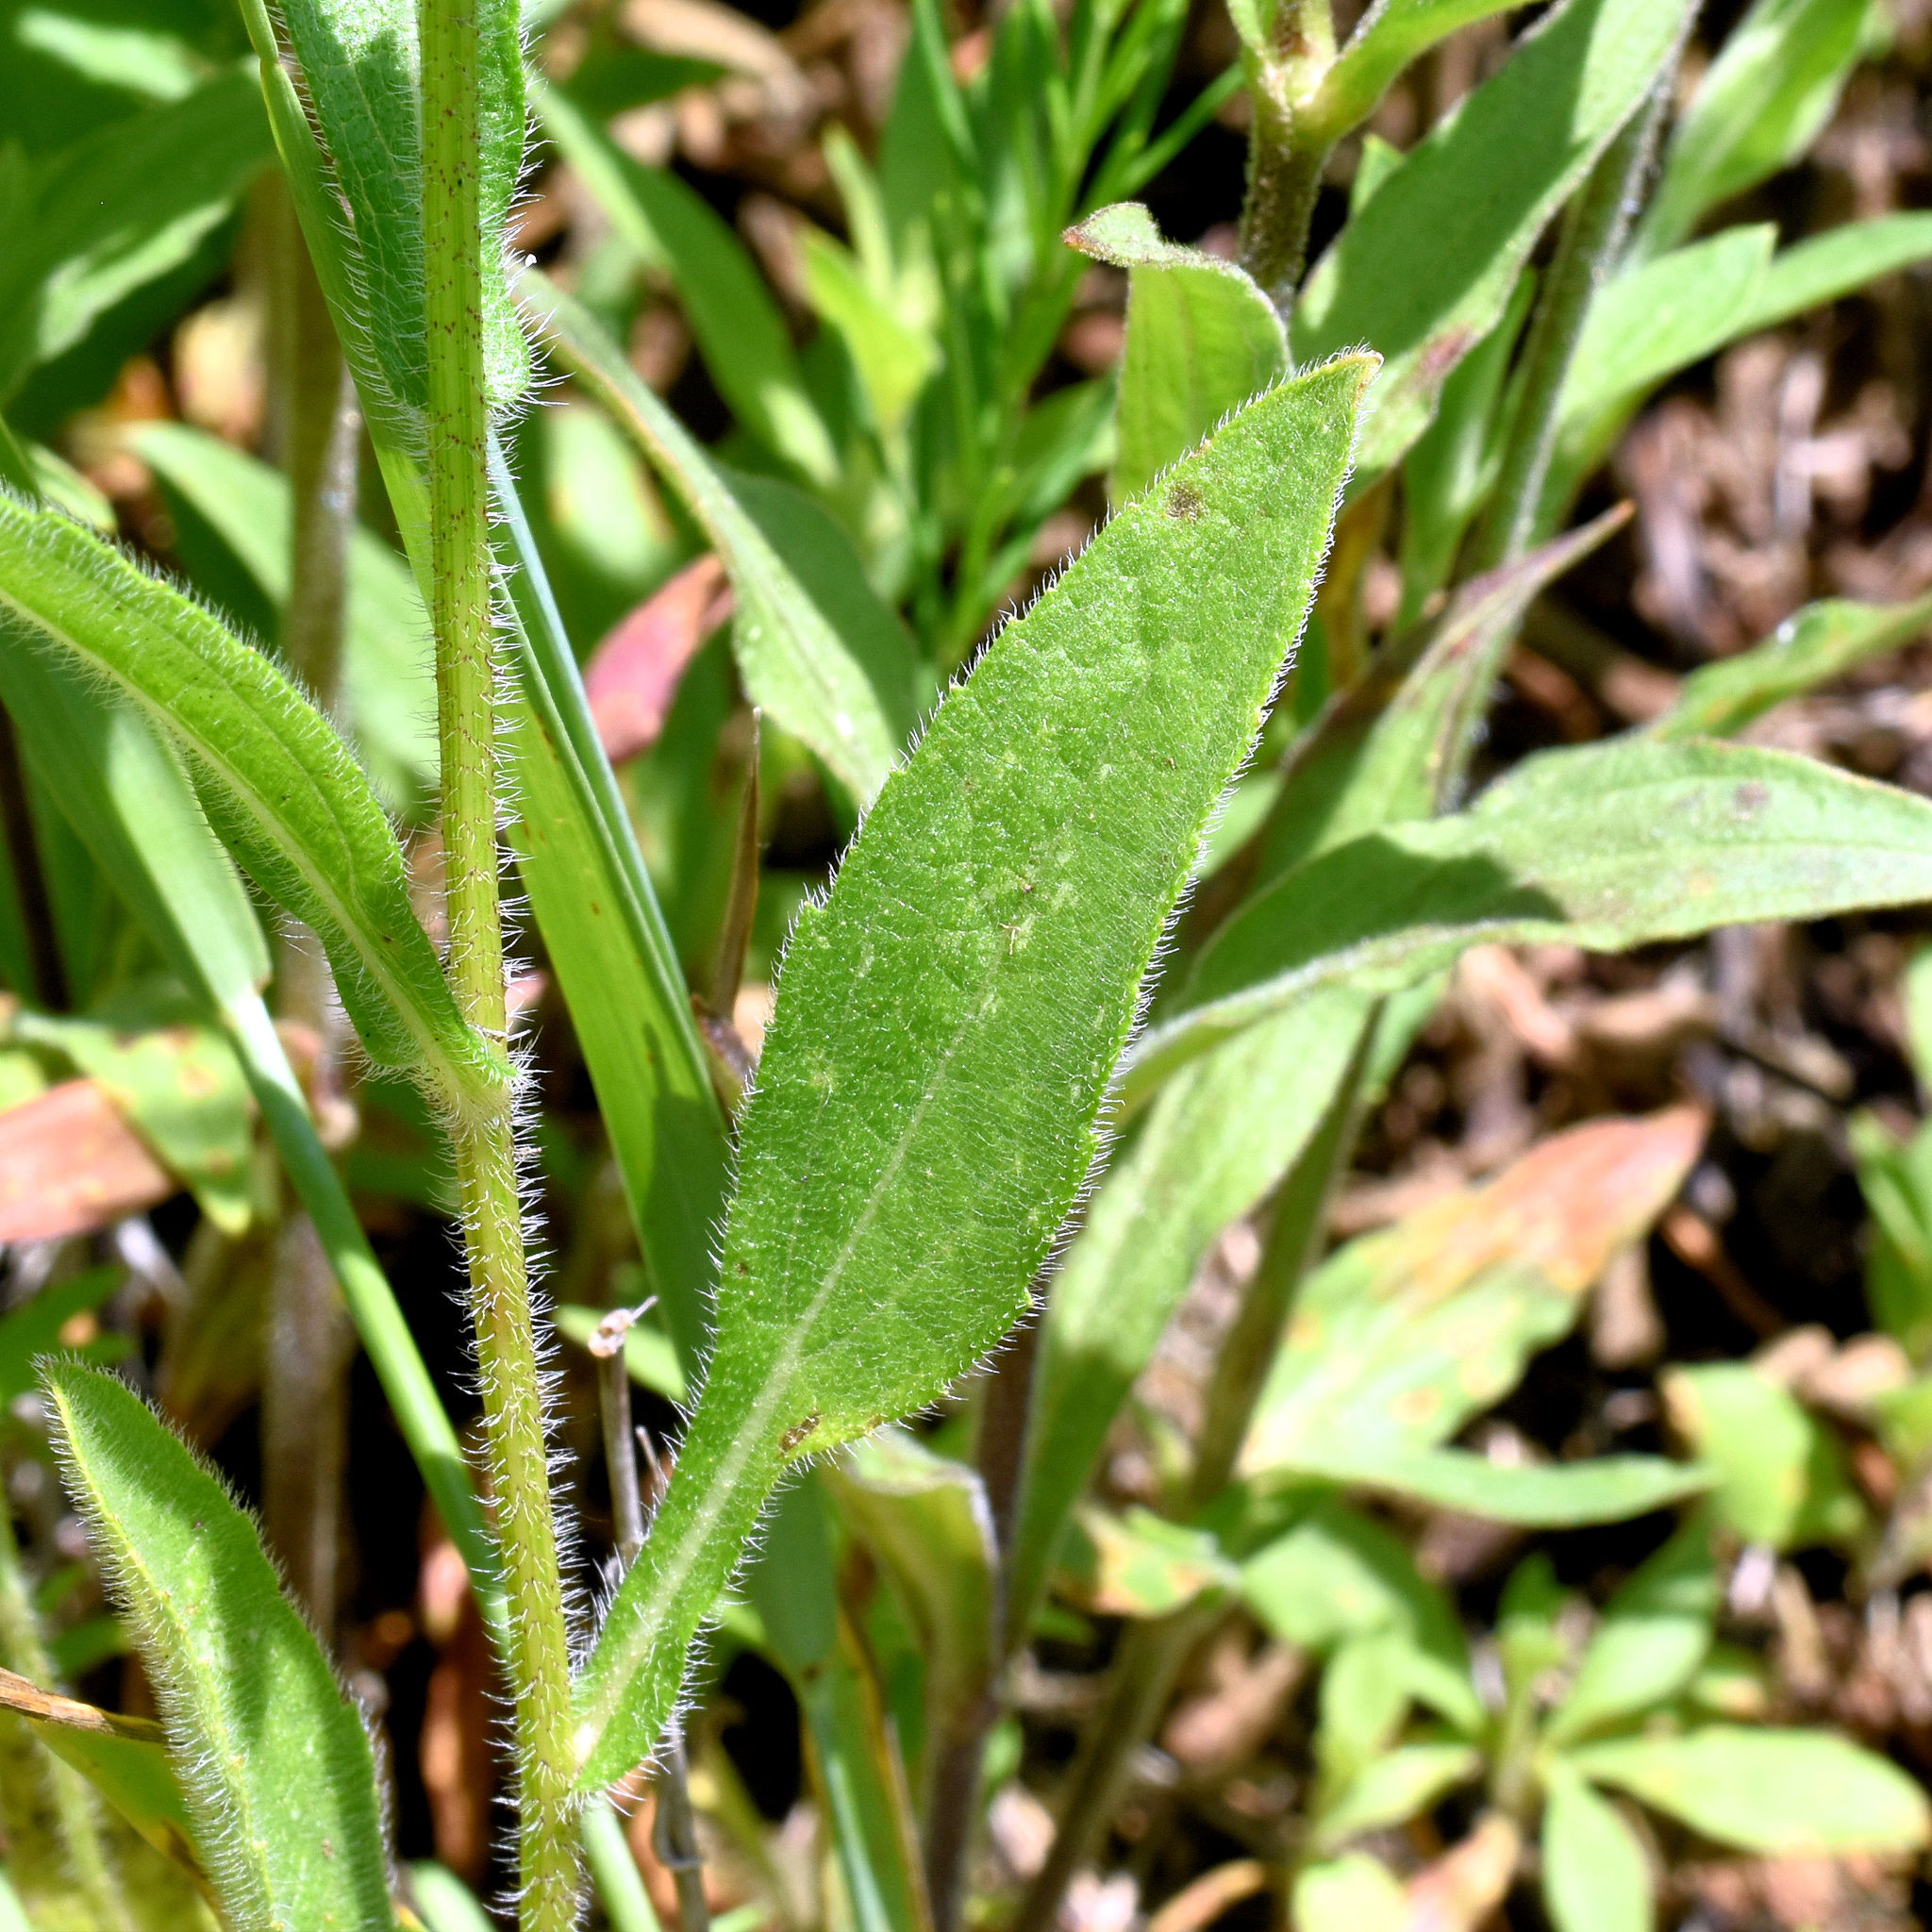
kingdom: Plantae
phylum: Tracheophyta
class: Magnoliopsida
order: Asterales
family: Asteraceae
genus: Rudbeckia
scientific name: Rudbeckia hirta
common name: Black-eyed-susan
